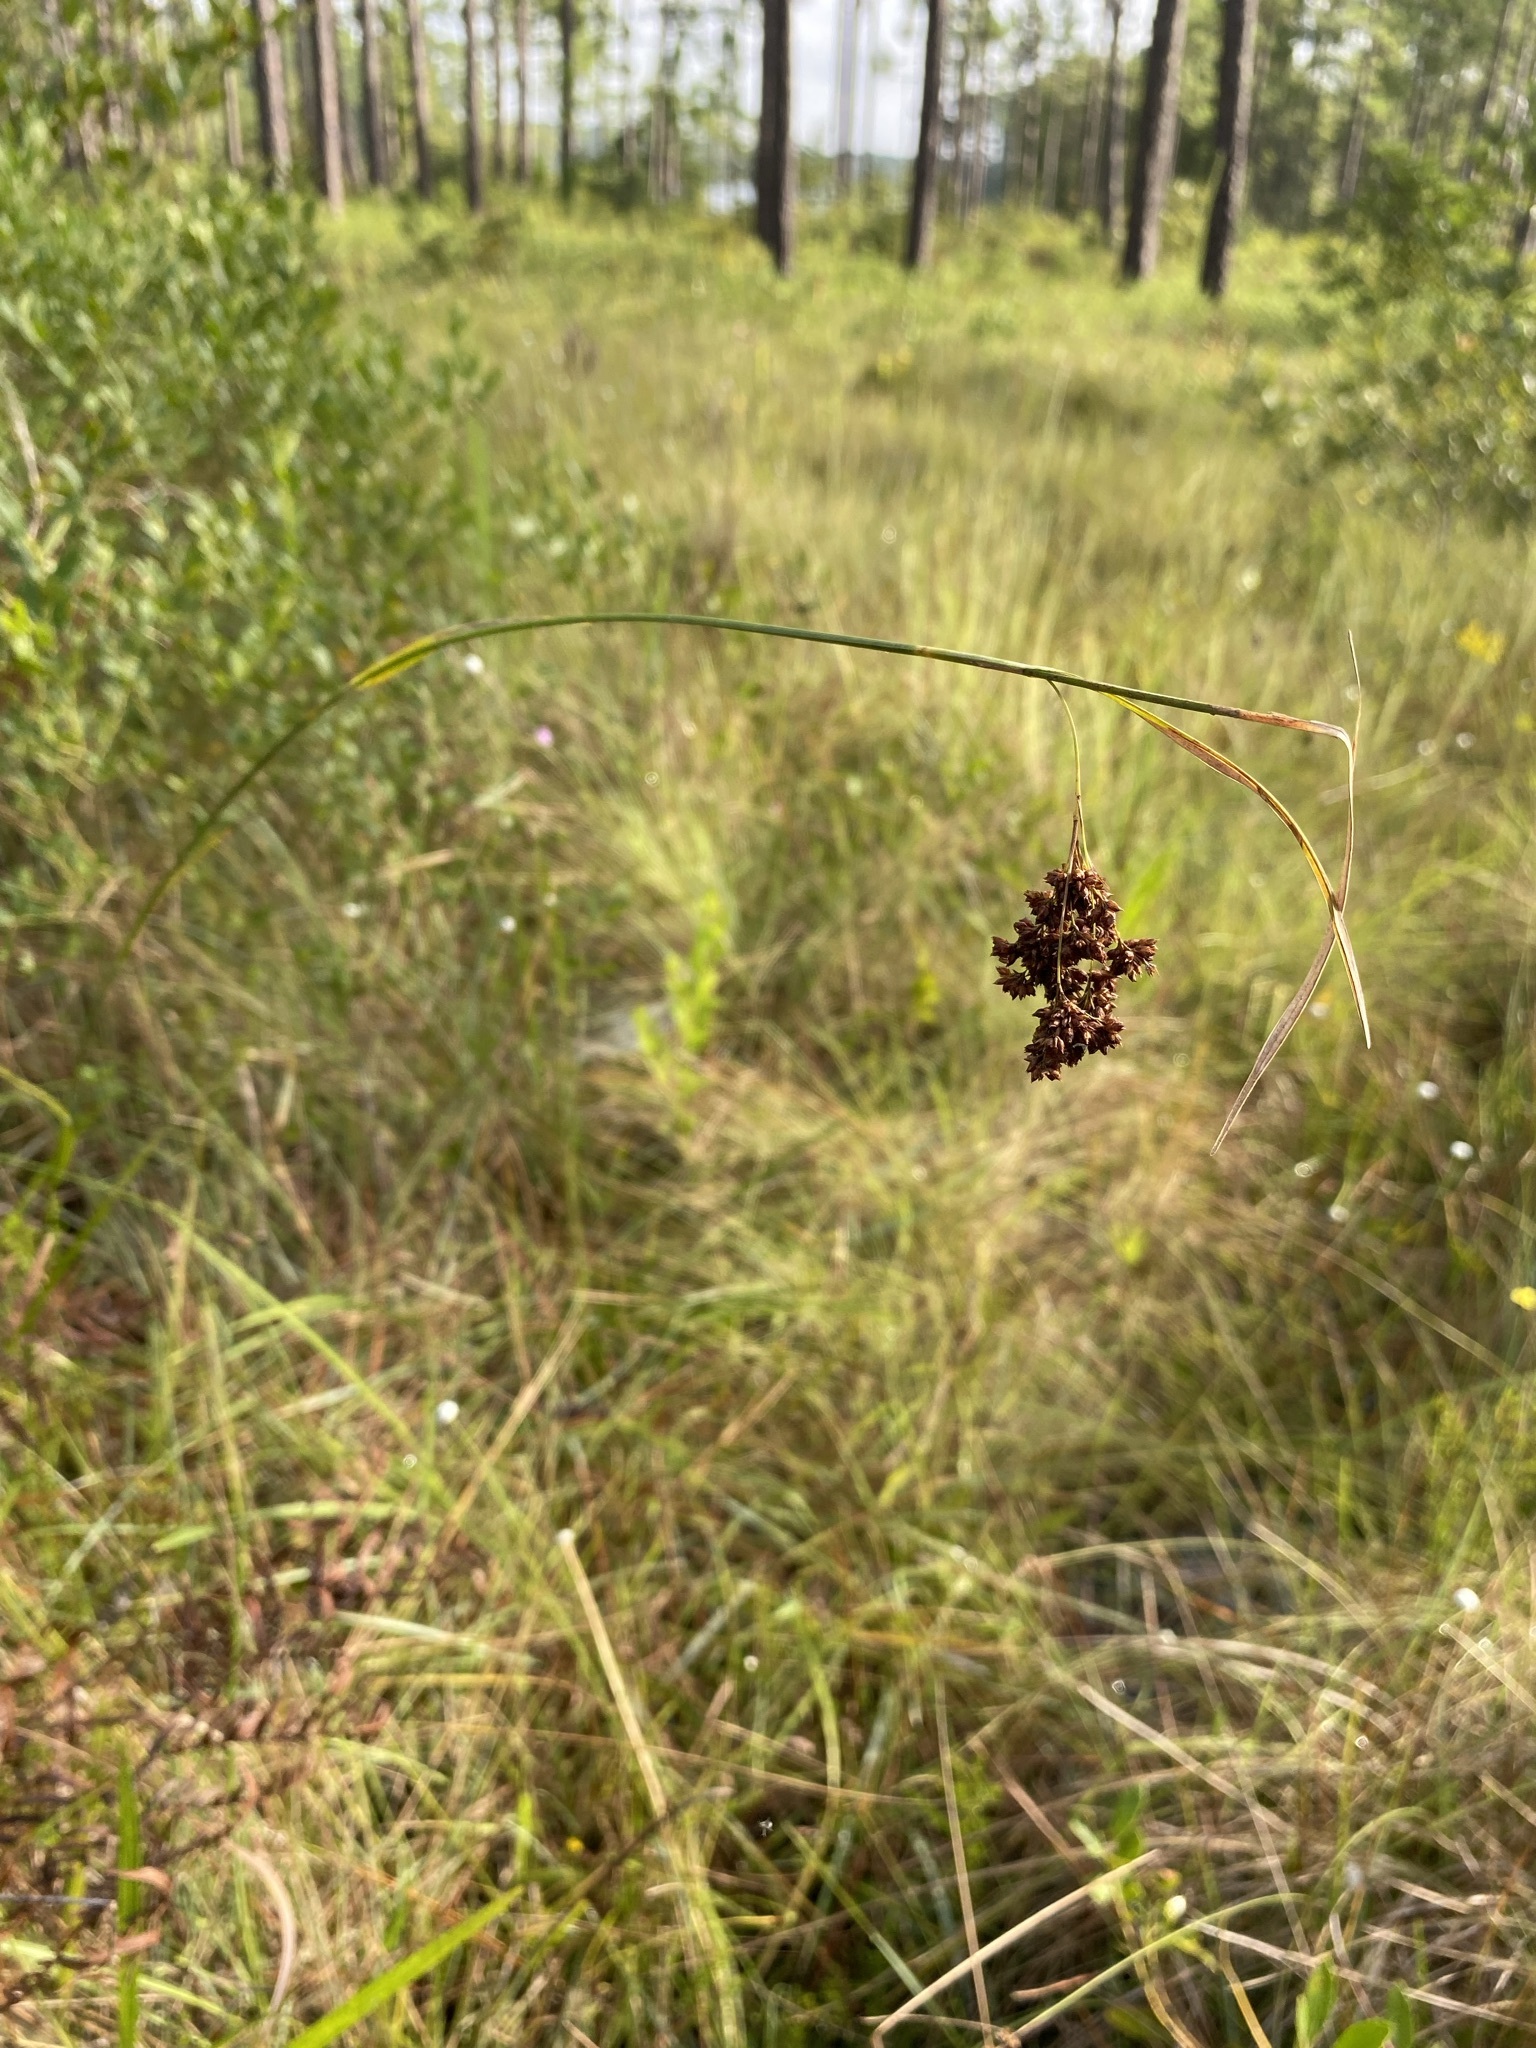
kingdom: Plantae
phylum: Tracheophyta
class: Liliopsida
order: Poales
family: Cyperaceae
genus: Rhynchospora
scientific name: Rhynchospora elliottii
